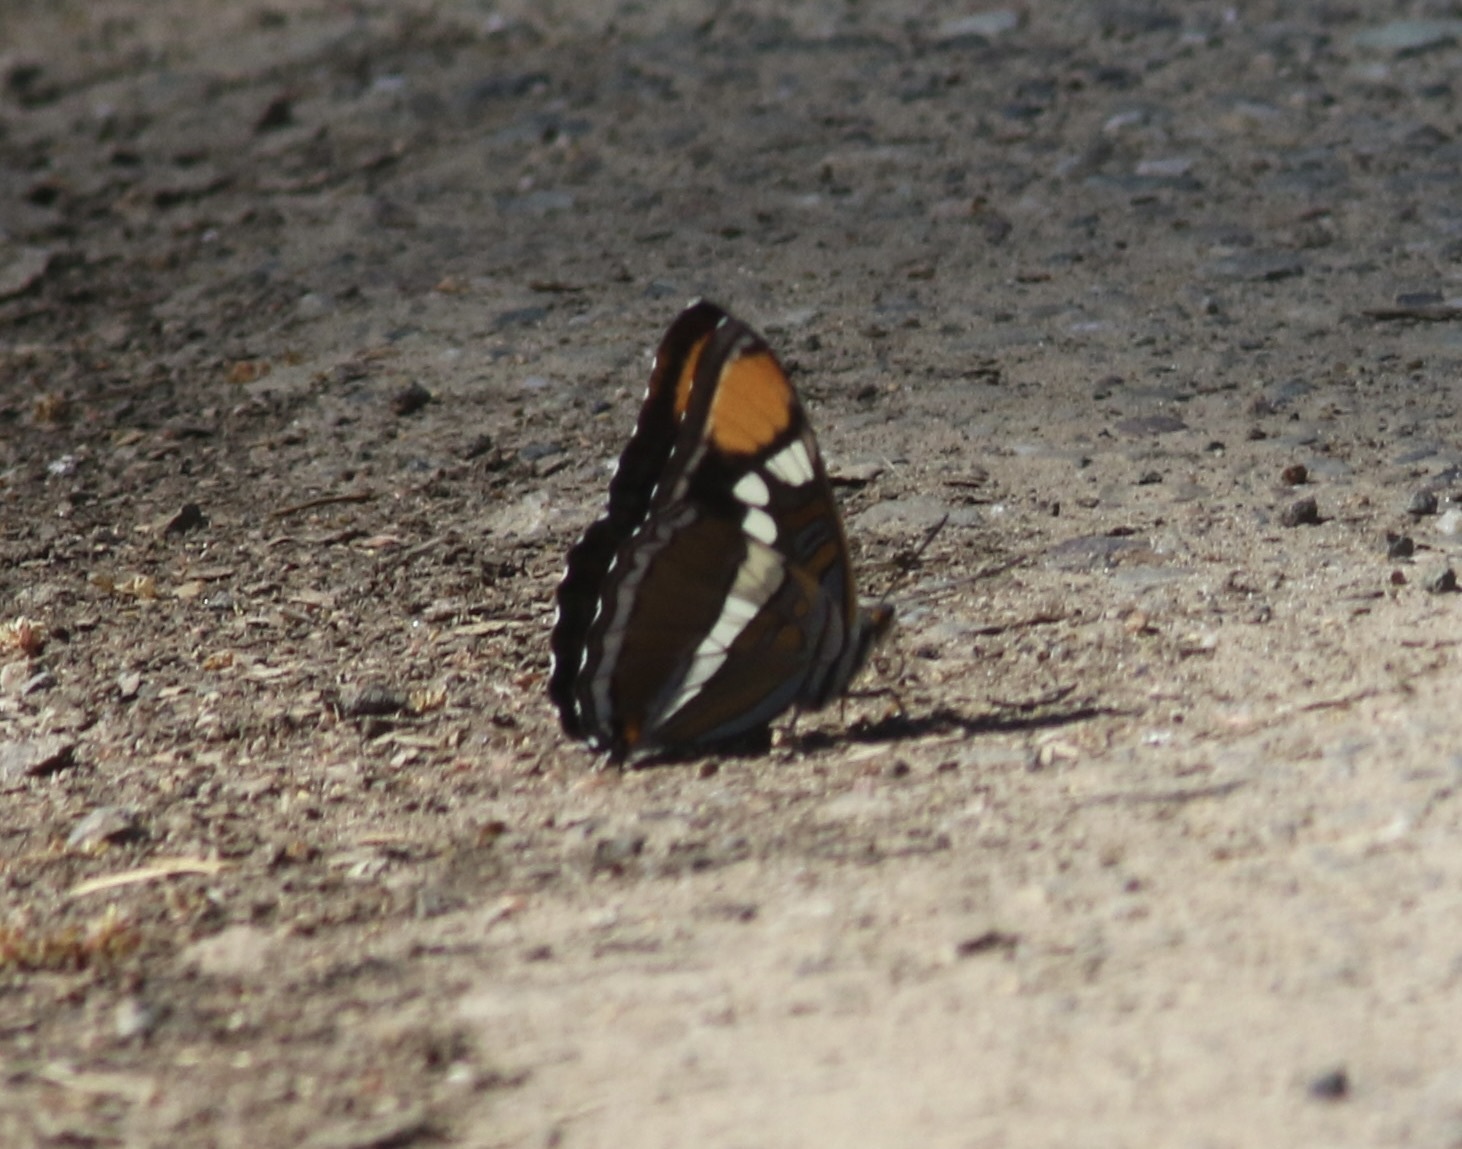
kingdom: Animalia
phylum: Arthropoda
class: Insecta
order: Lepidoptera
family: Nymphalidae
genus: Limenitis
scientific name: Limenitis bredowii
